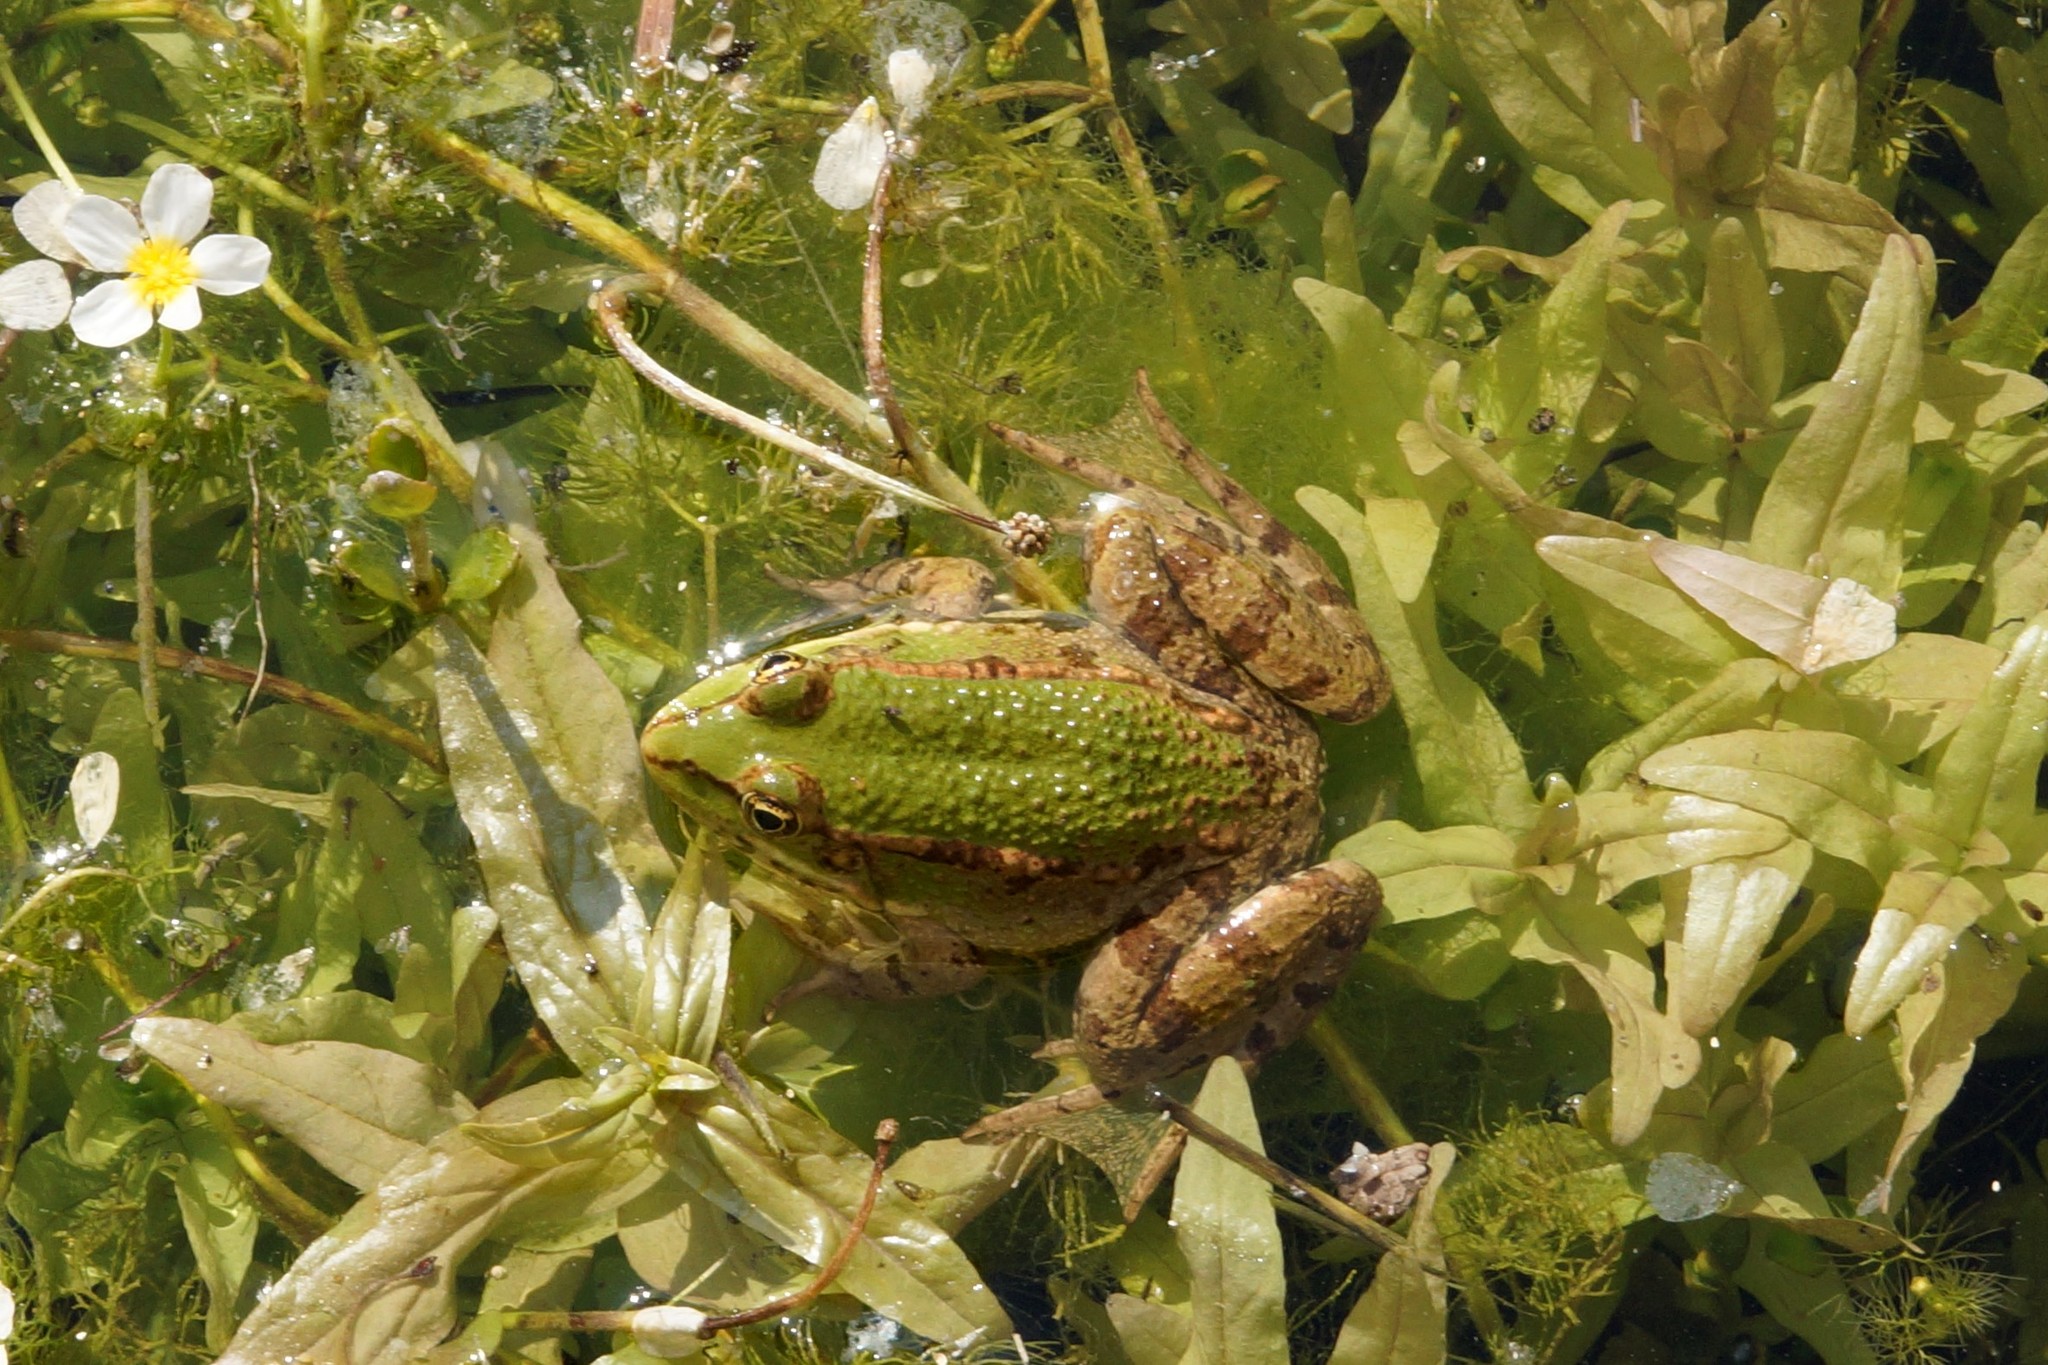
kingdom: Animalia
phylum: Chordata
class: Amphibia
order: Anura
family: Ranidae
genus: Pelophylax
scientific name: Pelophylax ridibundus
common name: Marsh frog
